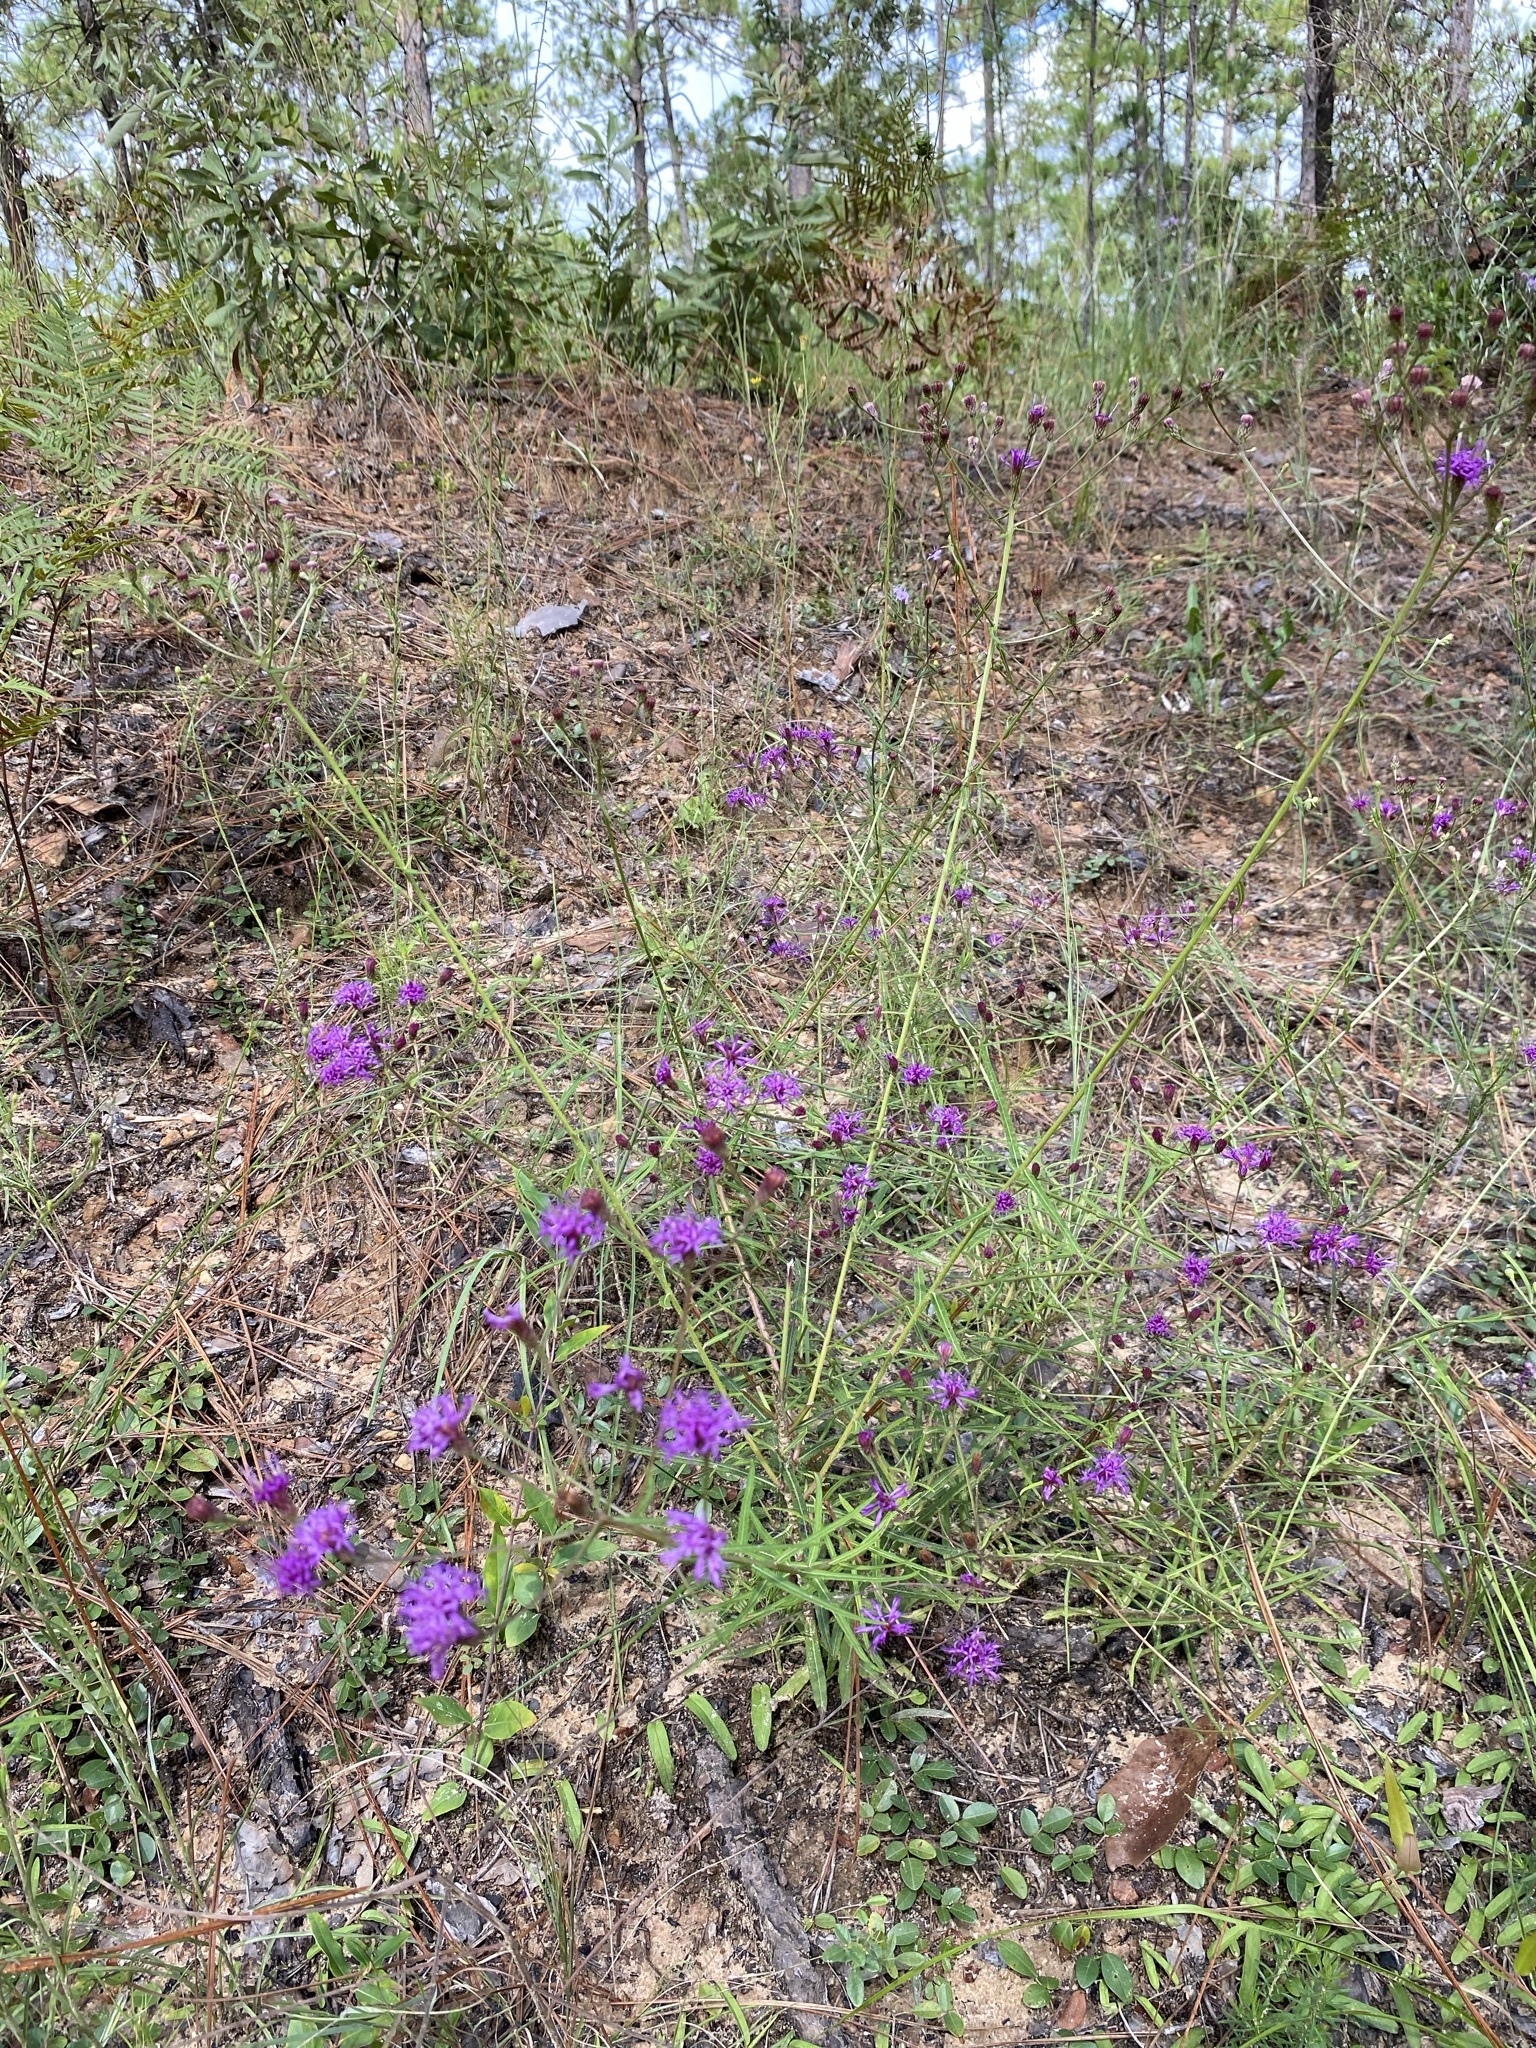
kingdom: Plantae
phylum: Tracheophyta
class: Magnoliopsida
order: Asterales
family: Asteraceae
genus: Vernonia
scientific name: Vernonia angustifolia
